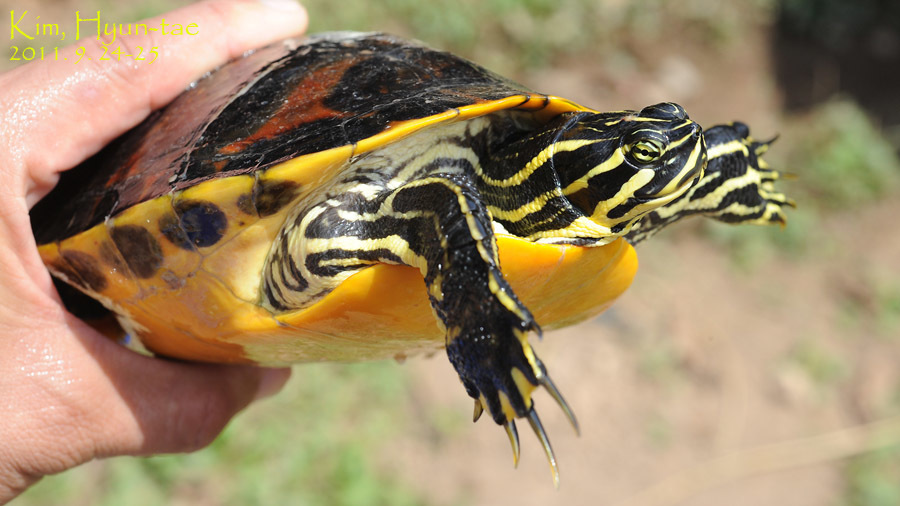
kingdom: Animalia
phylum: Chordata
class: Testudines
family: Emydidae
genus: Pseudemys
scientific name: Pseudemys nelsoni
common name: Florida red-bellied turtle
